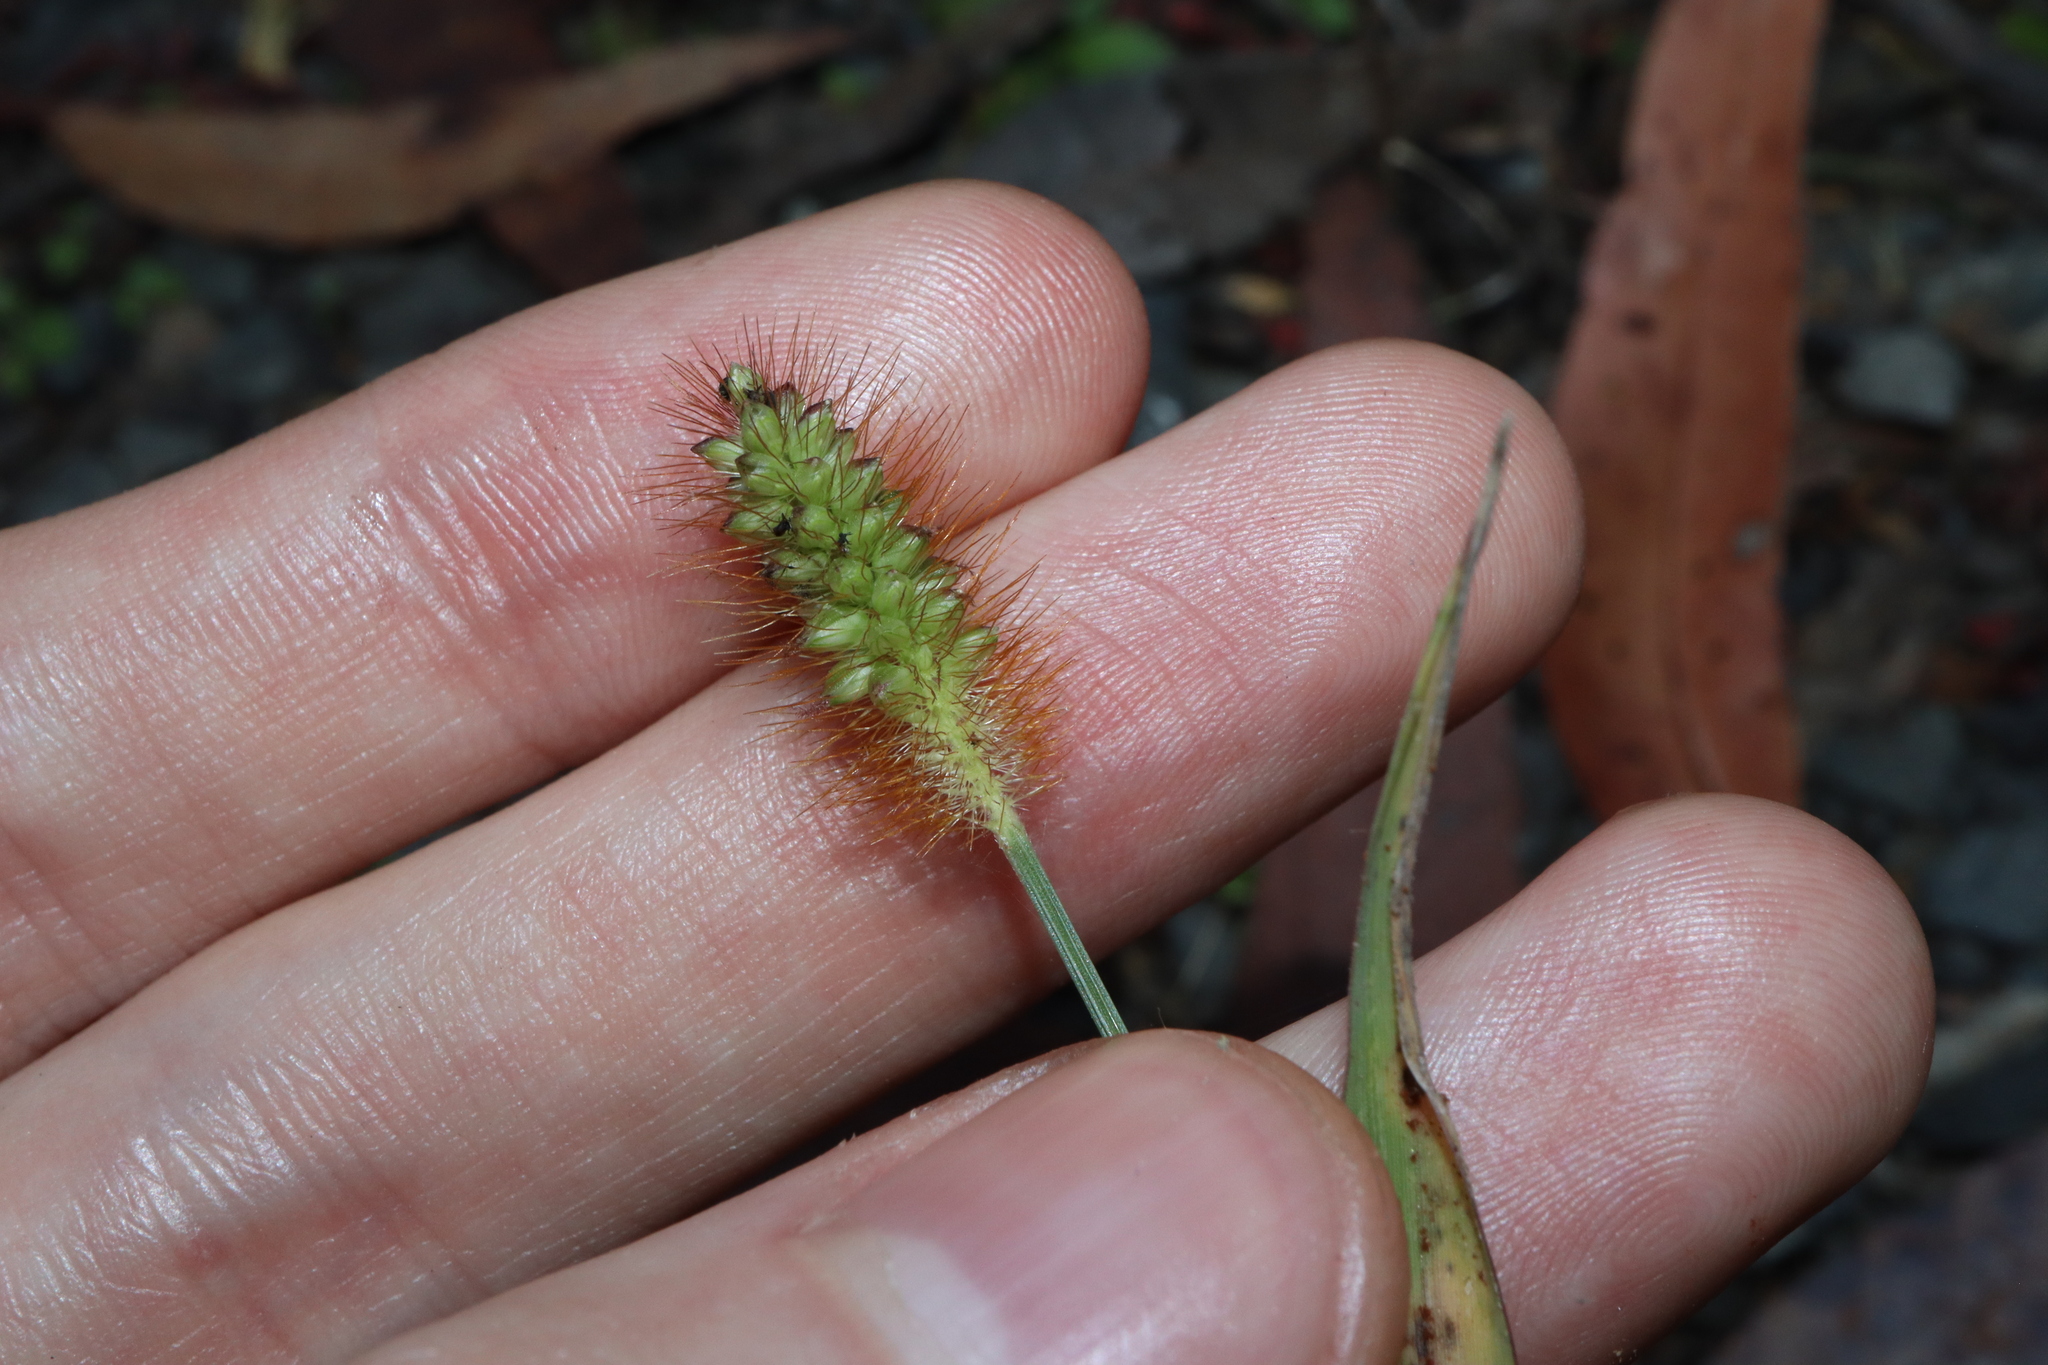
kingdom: Plantae
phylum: Tracheophyta
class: Liliopsida
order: Poales
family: Poaceae
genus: Setaria
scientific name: Setaria pumila
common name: Yellow bristle-grass
